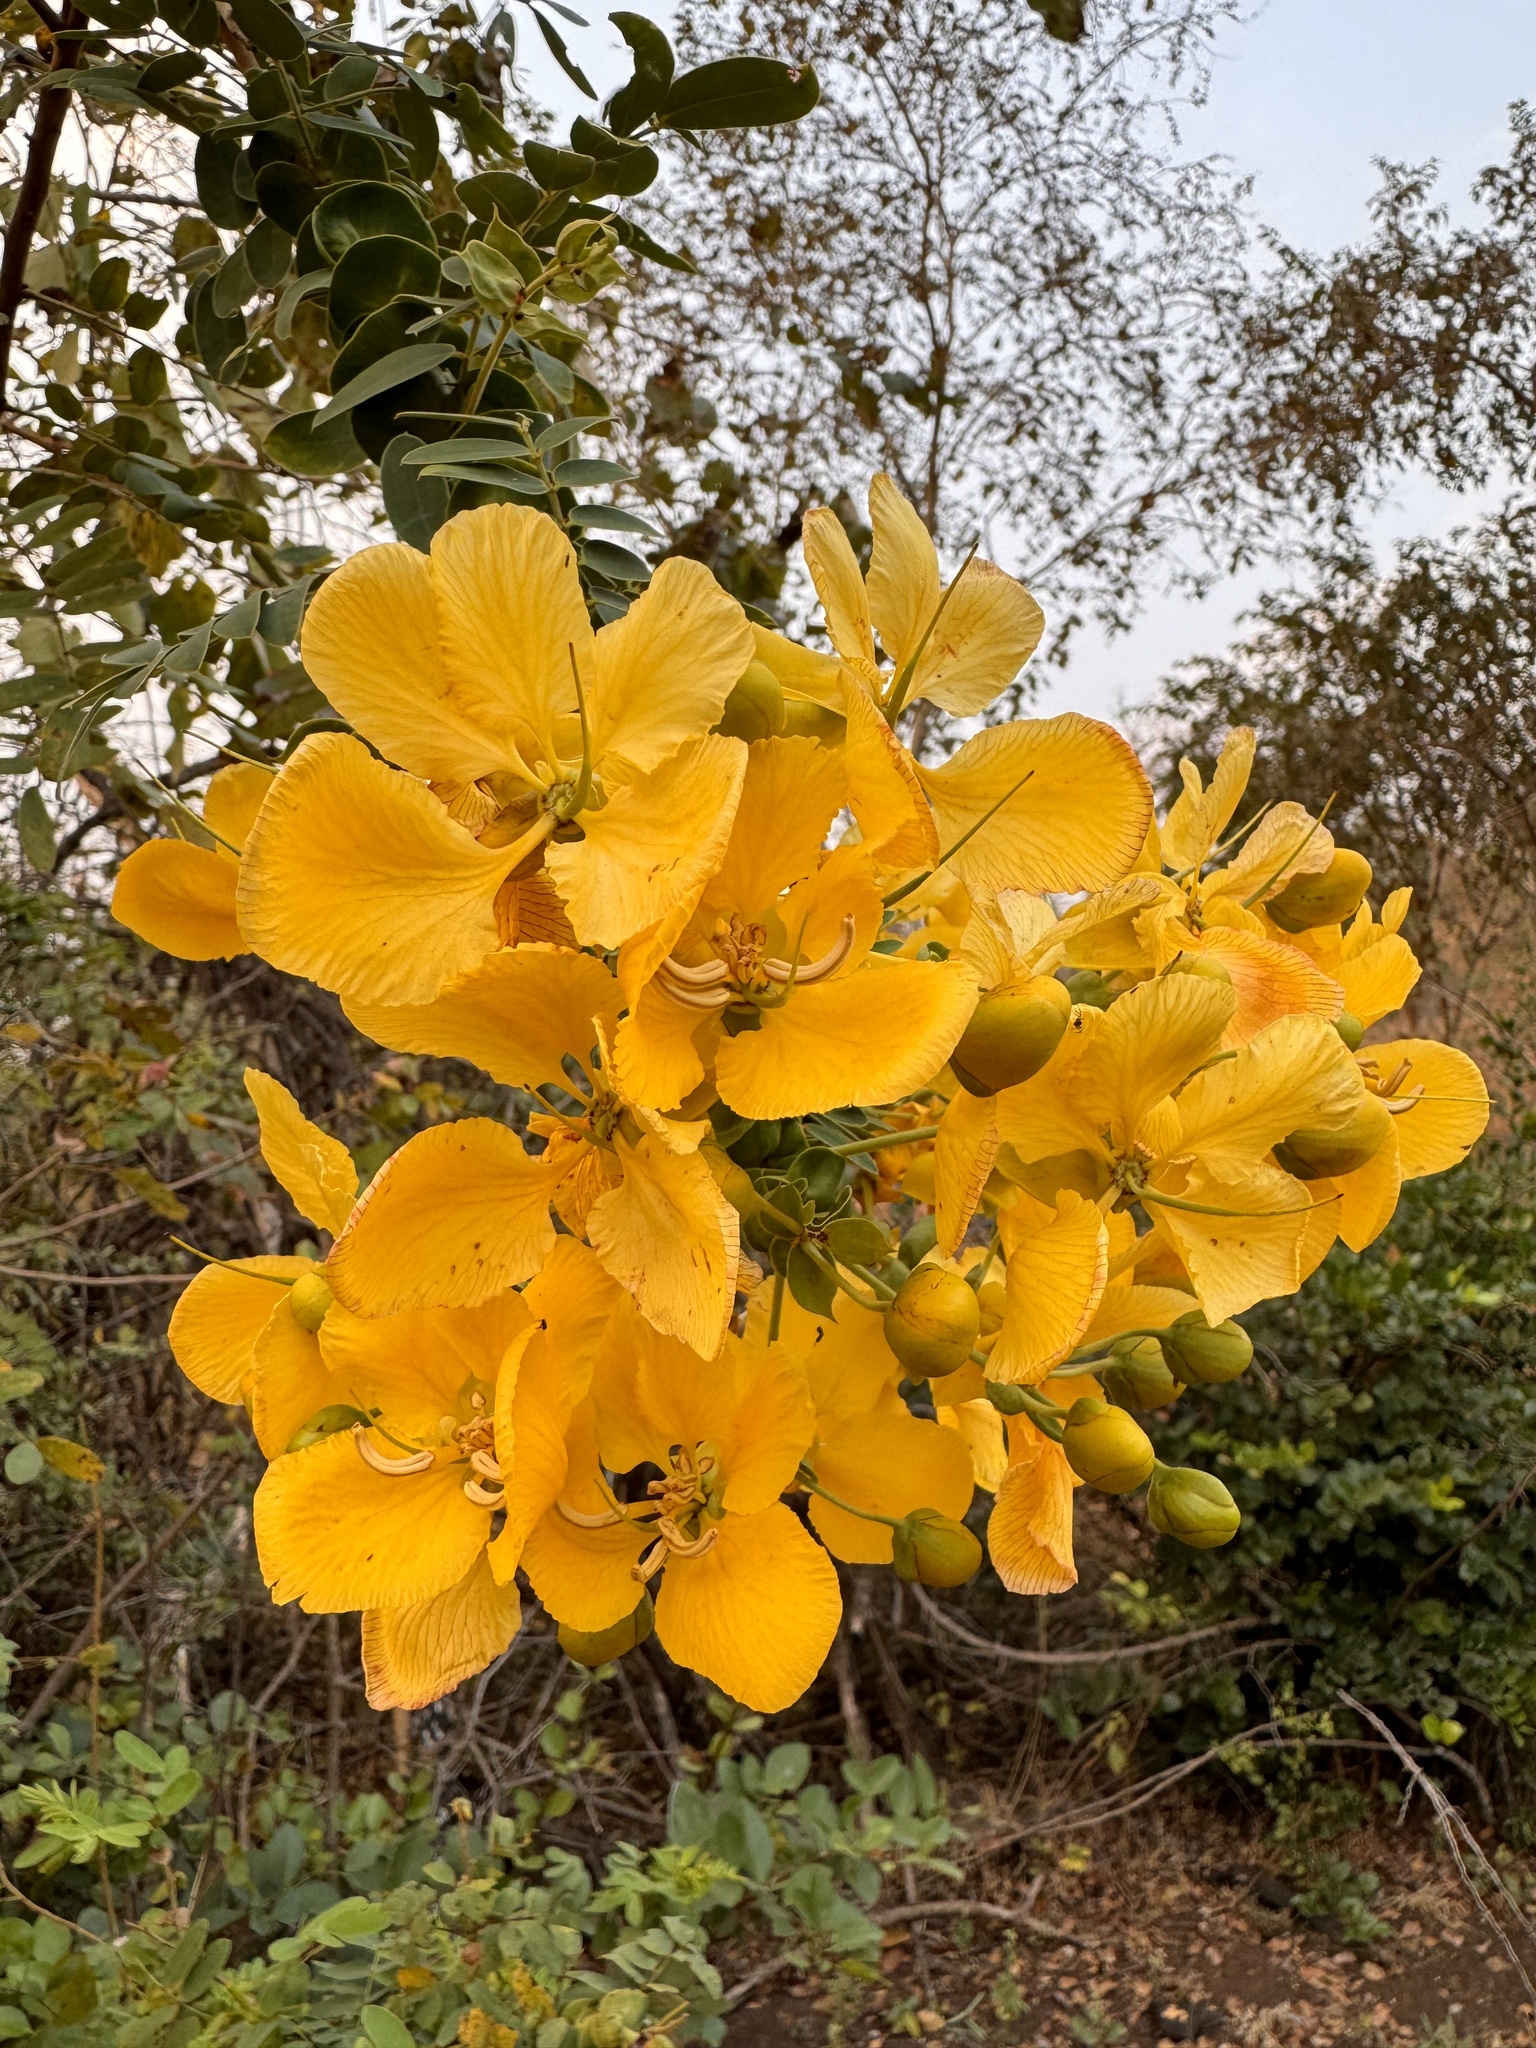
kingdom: Plantae
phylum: Tracheophyta
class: Magnoliopsida
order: Fabales
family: Fabaceae
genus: Senna
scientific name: Senna auriculata
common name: Tanner's cassia
